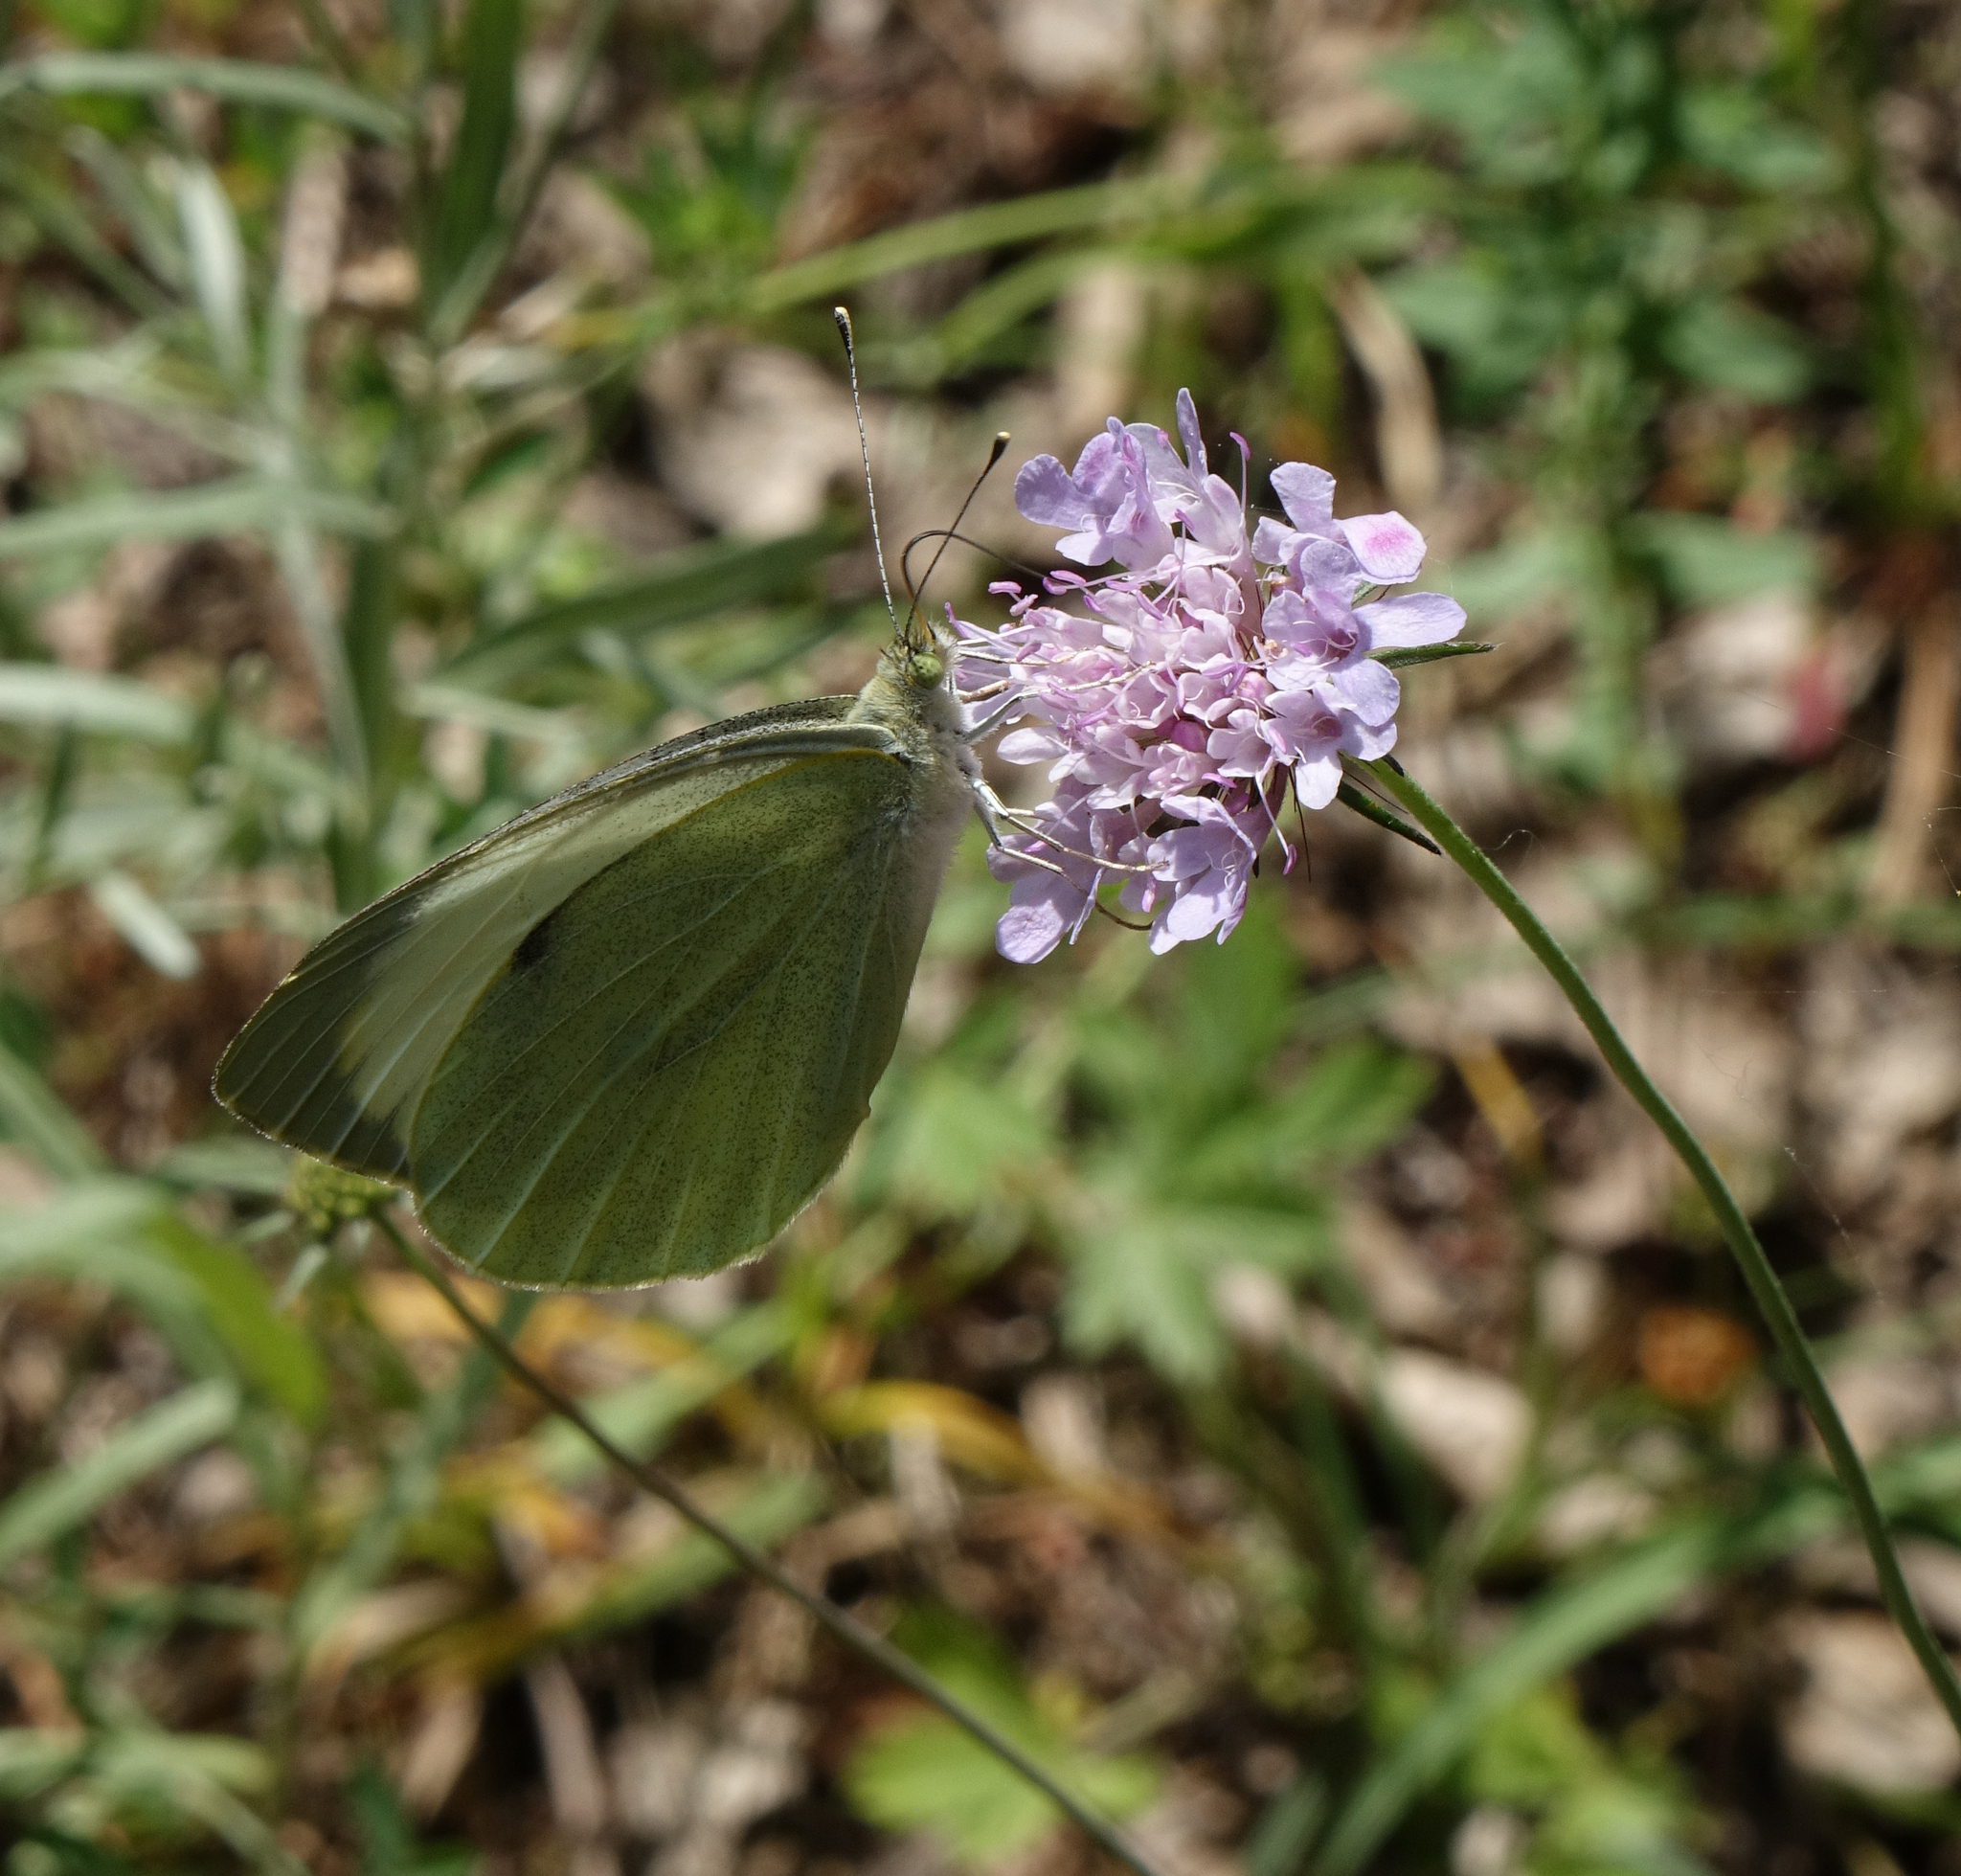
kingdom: Animalia
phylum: Arthropoda
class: Insecta
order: Lepidoptera
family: Pieridae
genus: Pieris
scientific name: Pieris brassicae
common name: Large white
